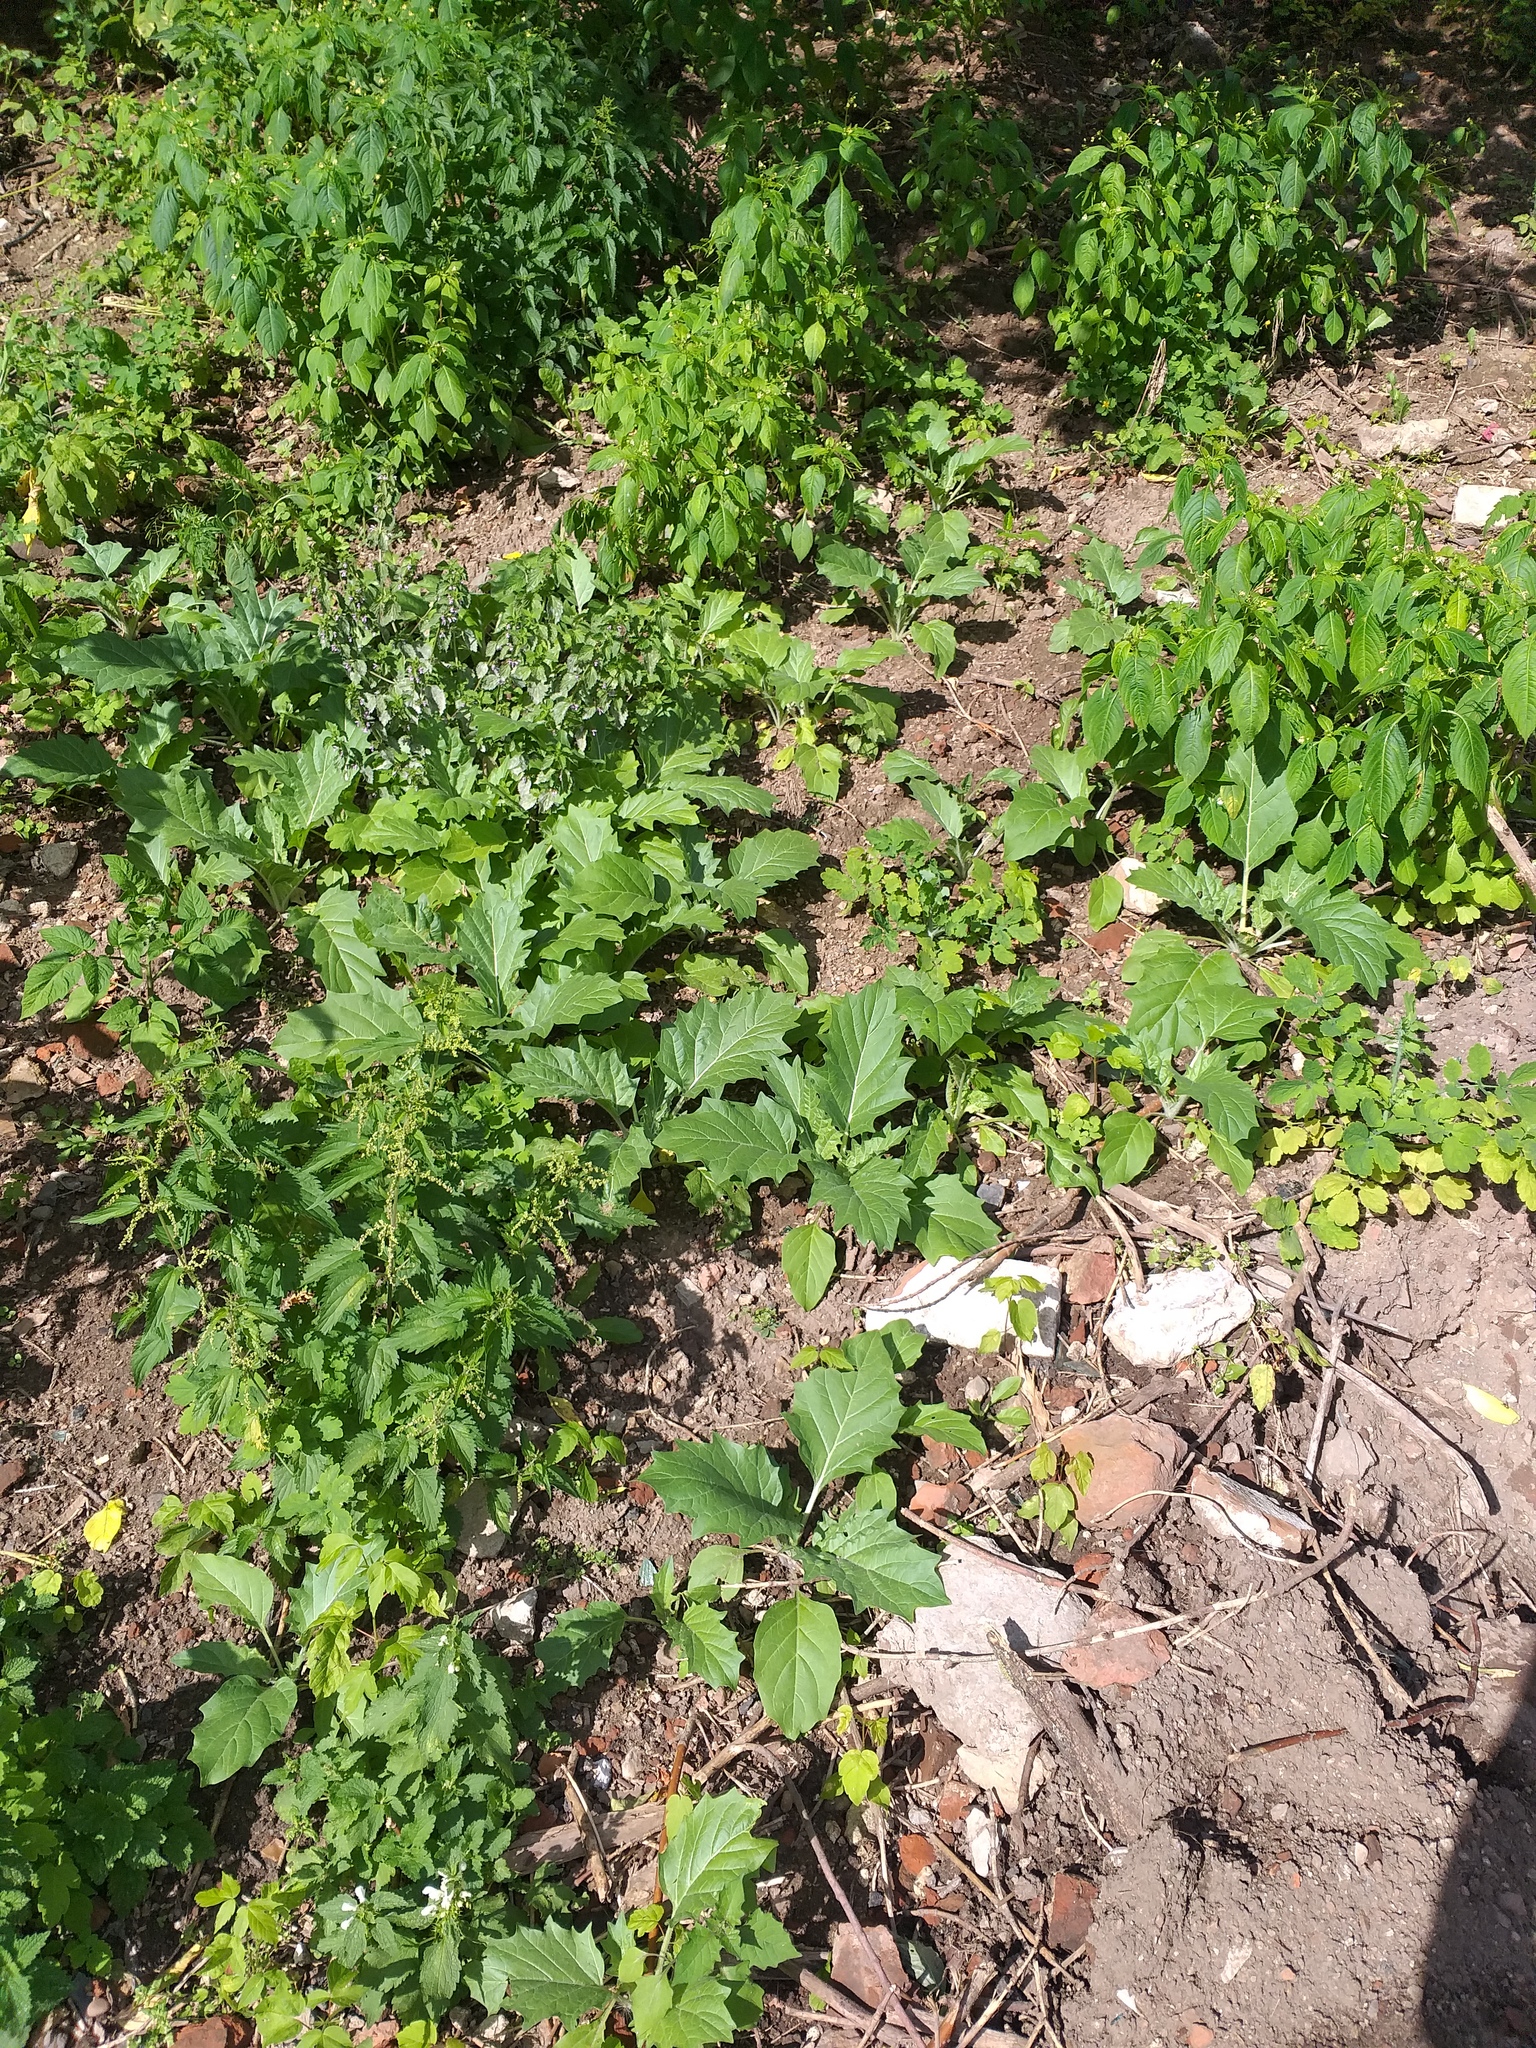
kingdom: Plantae
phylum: Tracheophyta
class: Magnoliopsida
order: Solanales
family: Solanaceae
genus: Hyoscyamus
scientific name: Hyoscyamus niger
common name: Henbane
